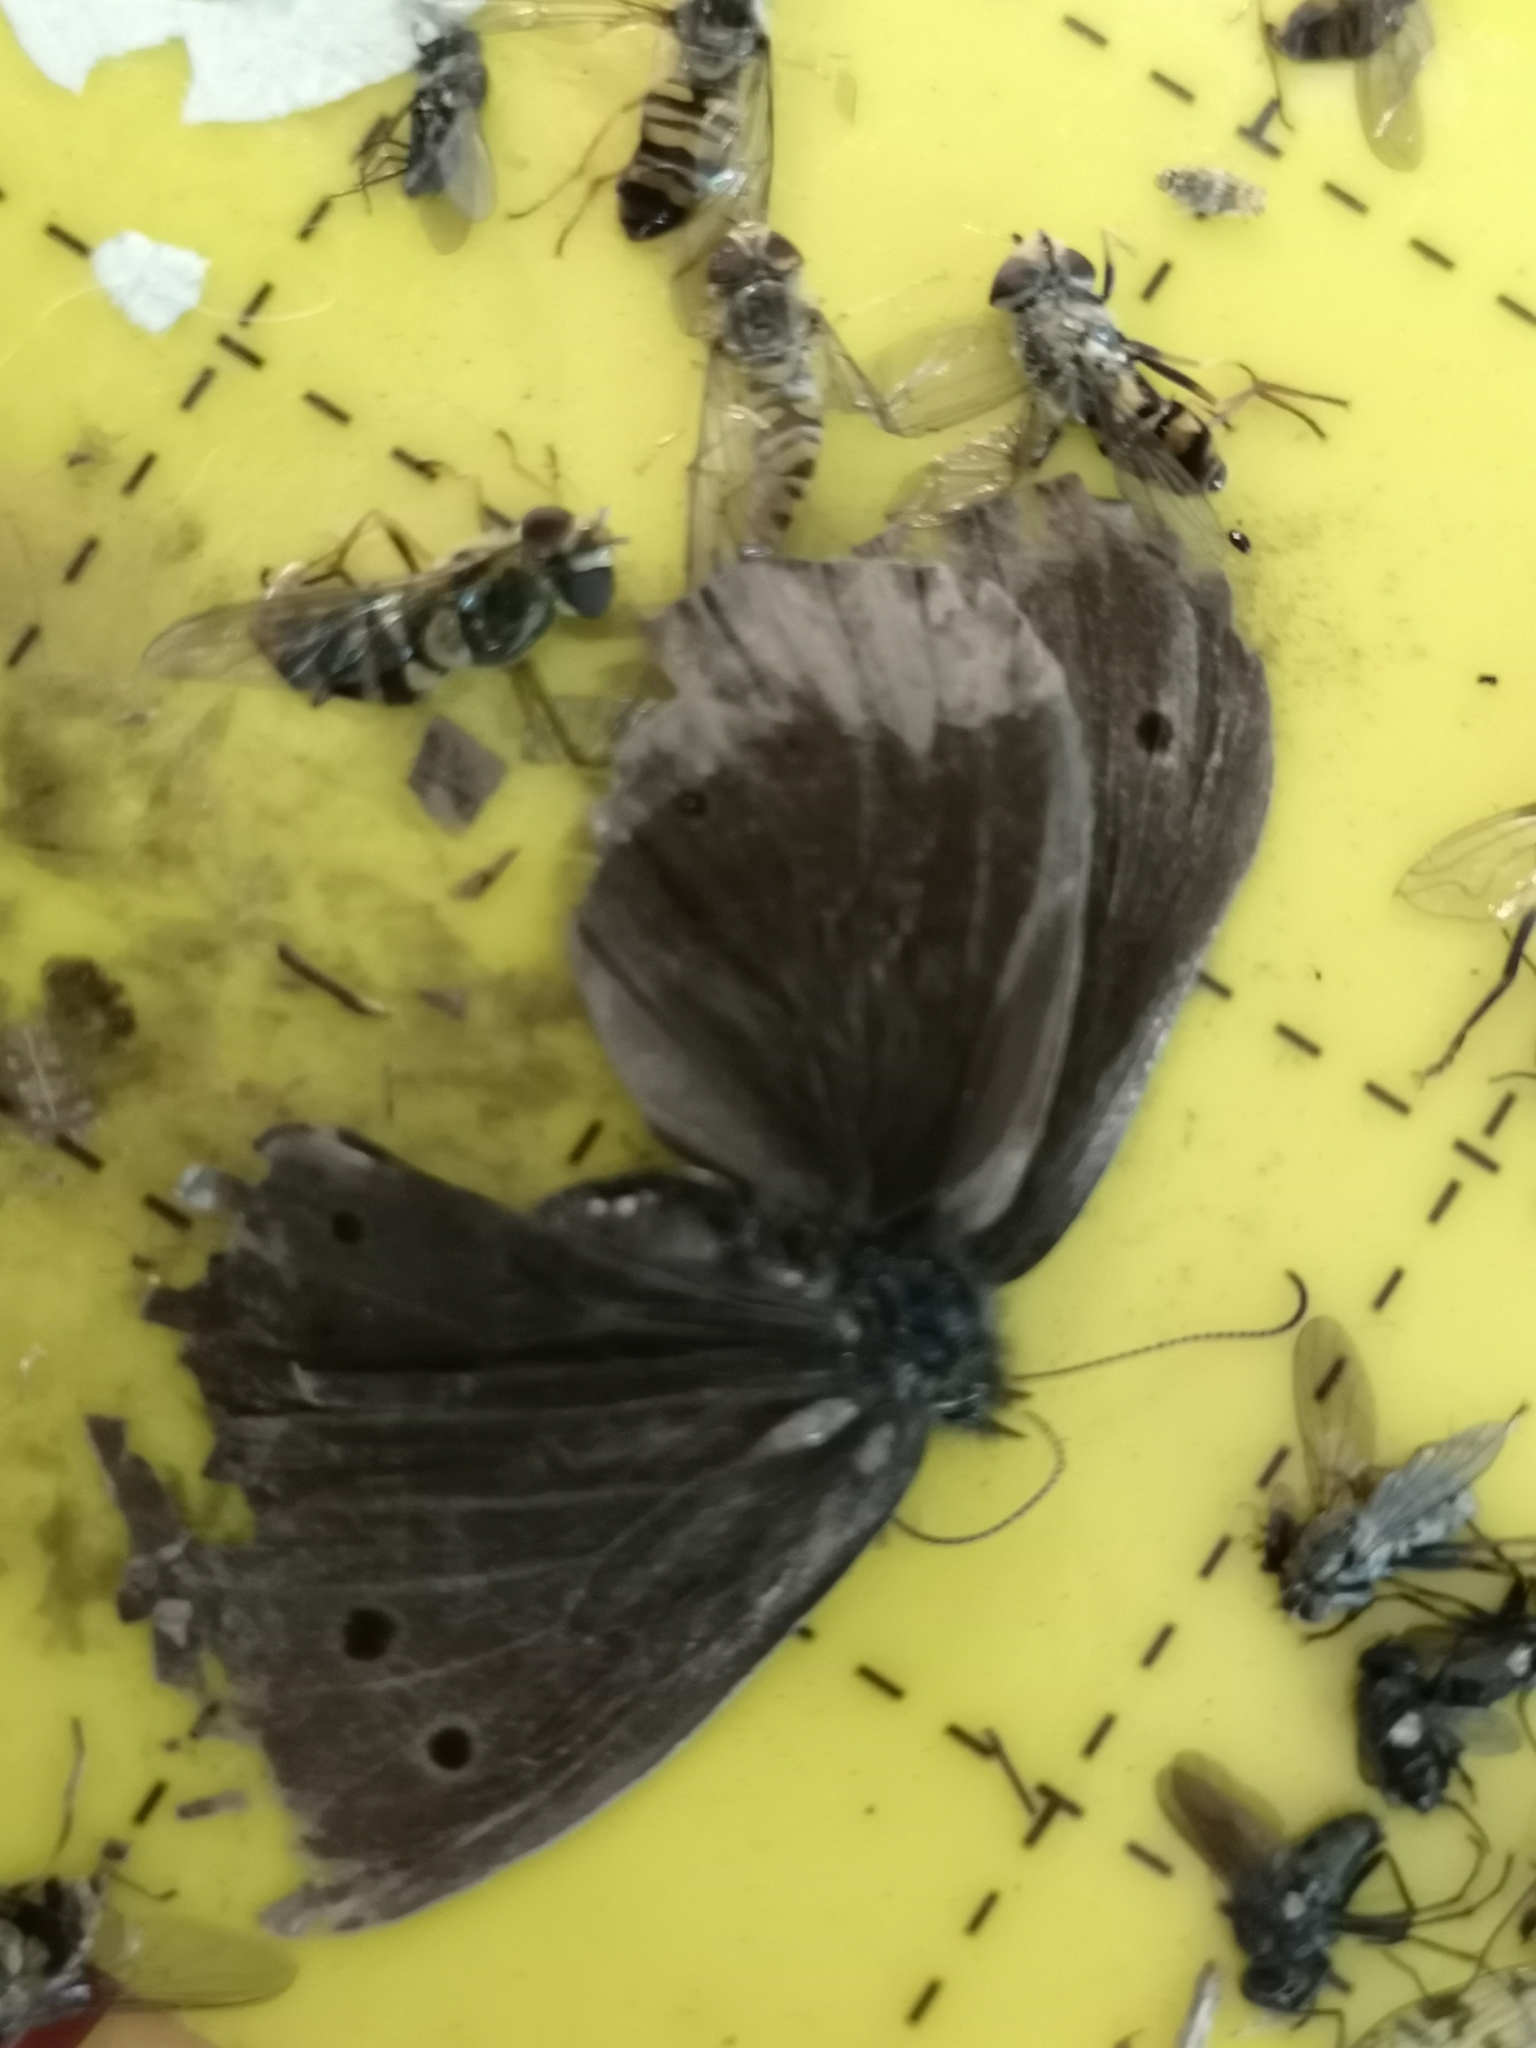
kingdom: Animalia
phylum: Arthropoda
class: Insecta
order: Lepidoptera
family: Nymphalidae
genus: Aphantopus
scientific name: Aphantopus hyperantus
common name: Ringlet
